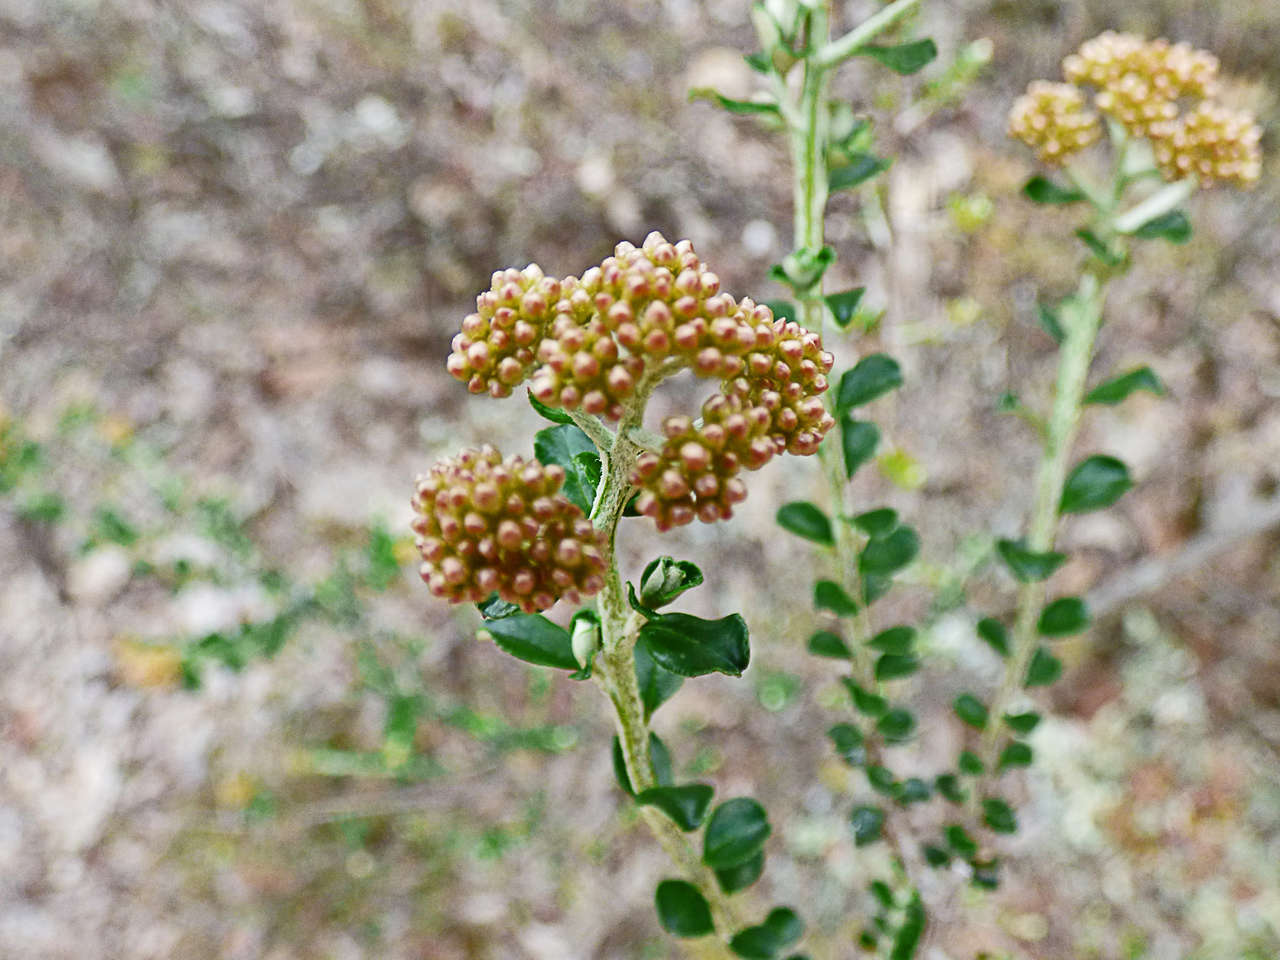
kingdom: Plantae
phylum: Tracheophyta
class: Magnoliopsida
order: Asterales
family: Asteraceae
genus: Ozothamnus
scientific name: Ozothamnus obcordatus
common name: Grey everlasting
